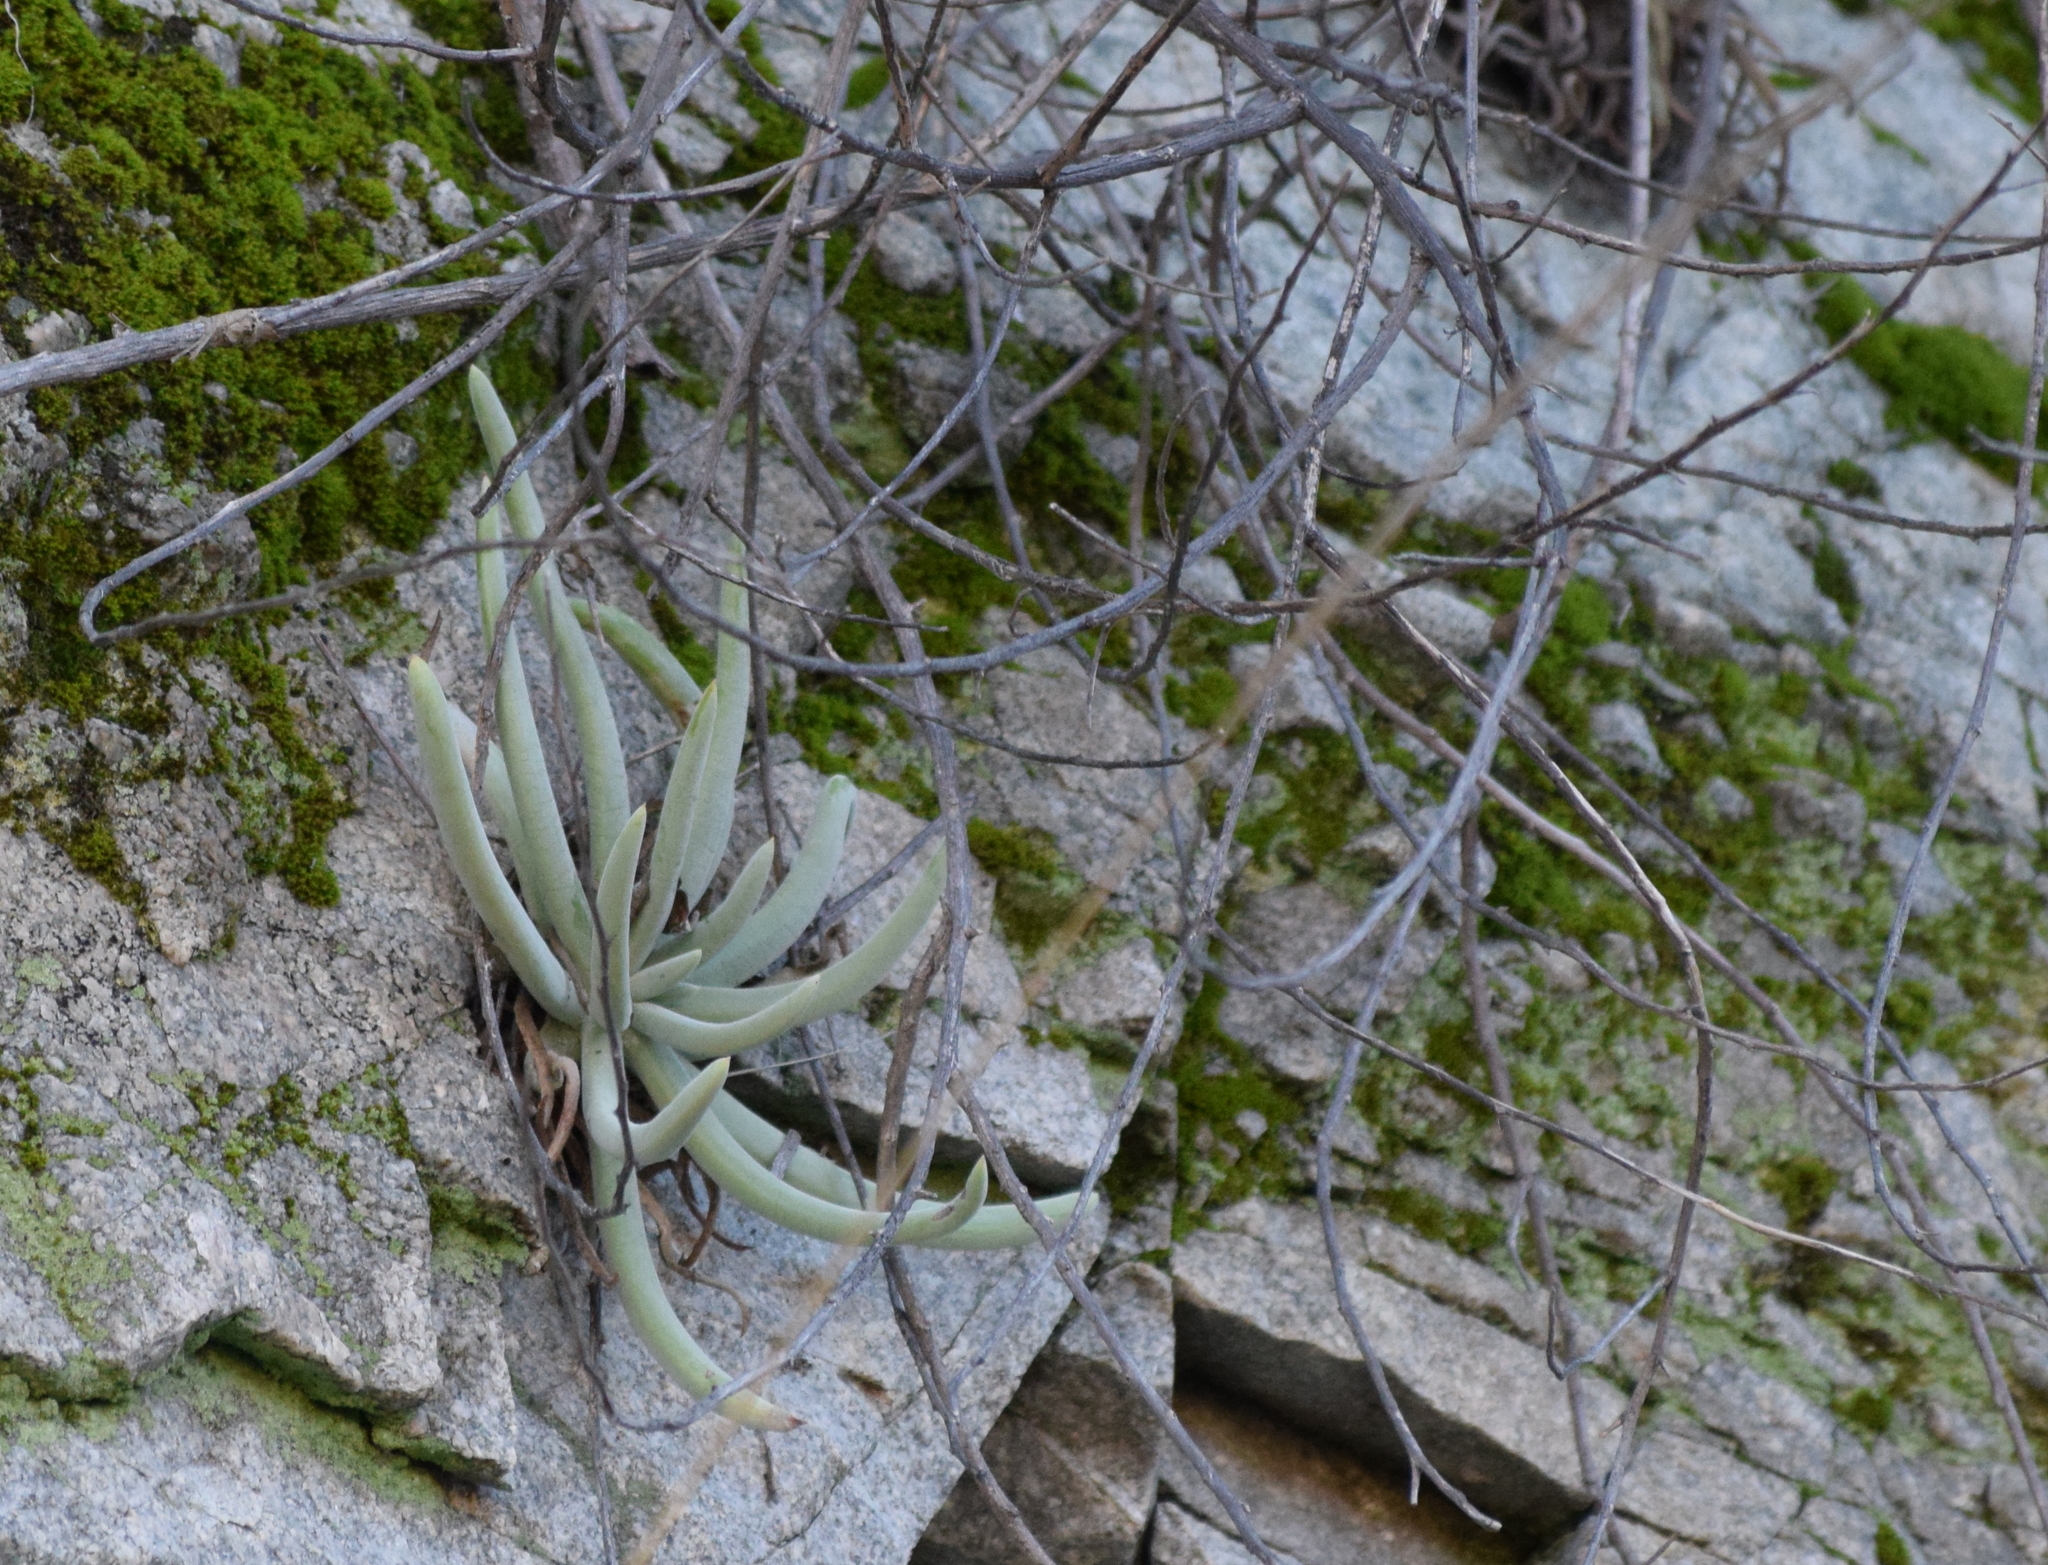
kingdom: Plantae
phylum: Tracheophyta
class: Magnoliopsida
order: Saxifragales
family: Crassulaceae
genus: Dudleya
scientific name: Dudleya densiflora
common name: San gabriel mountains dudleya
